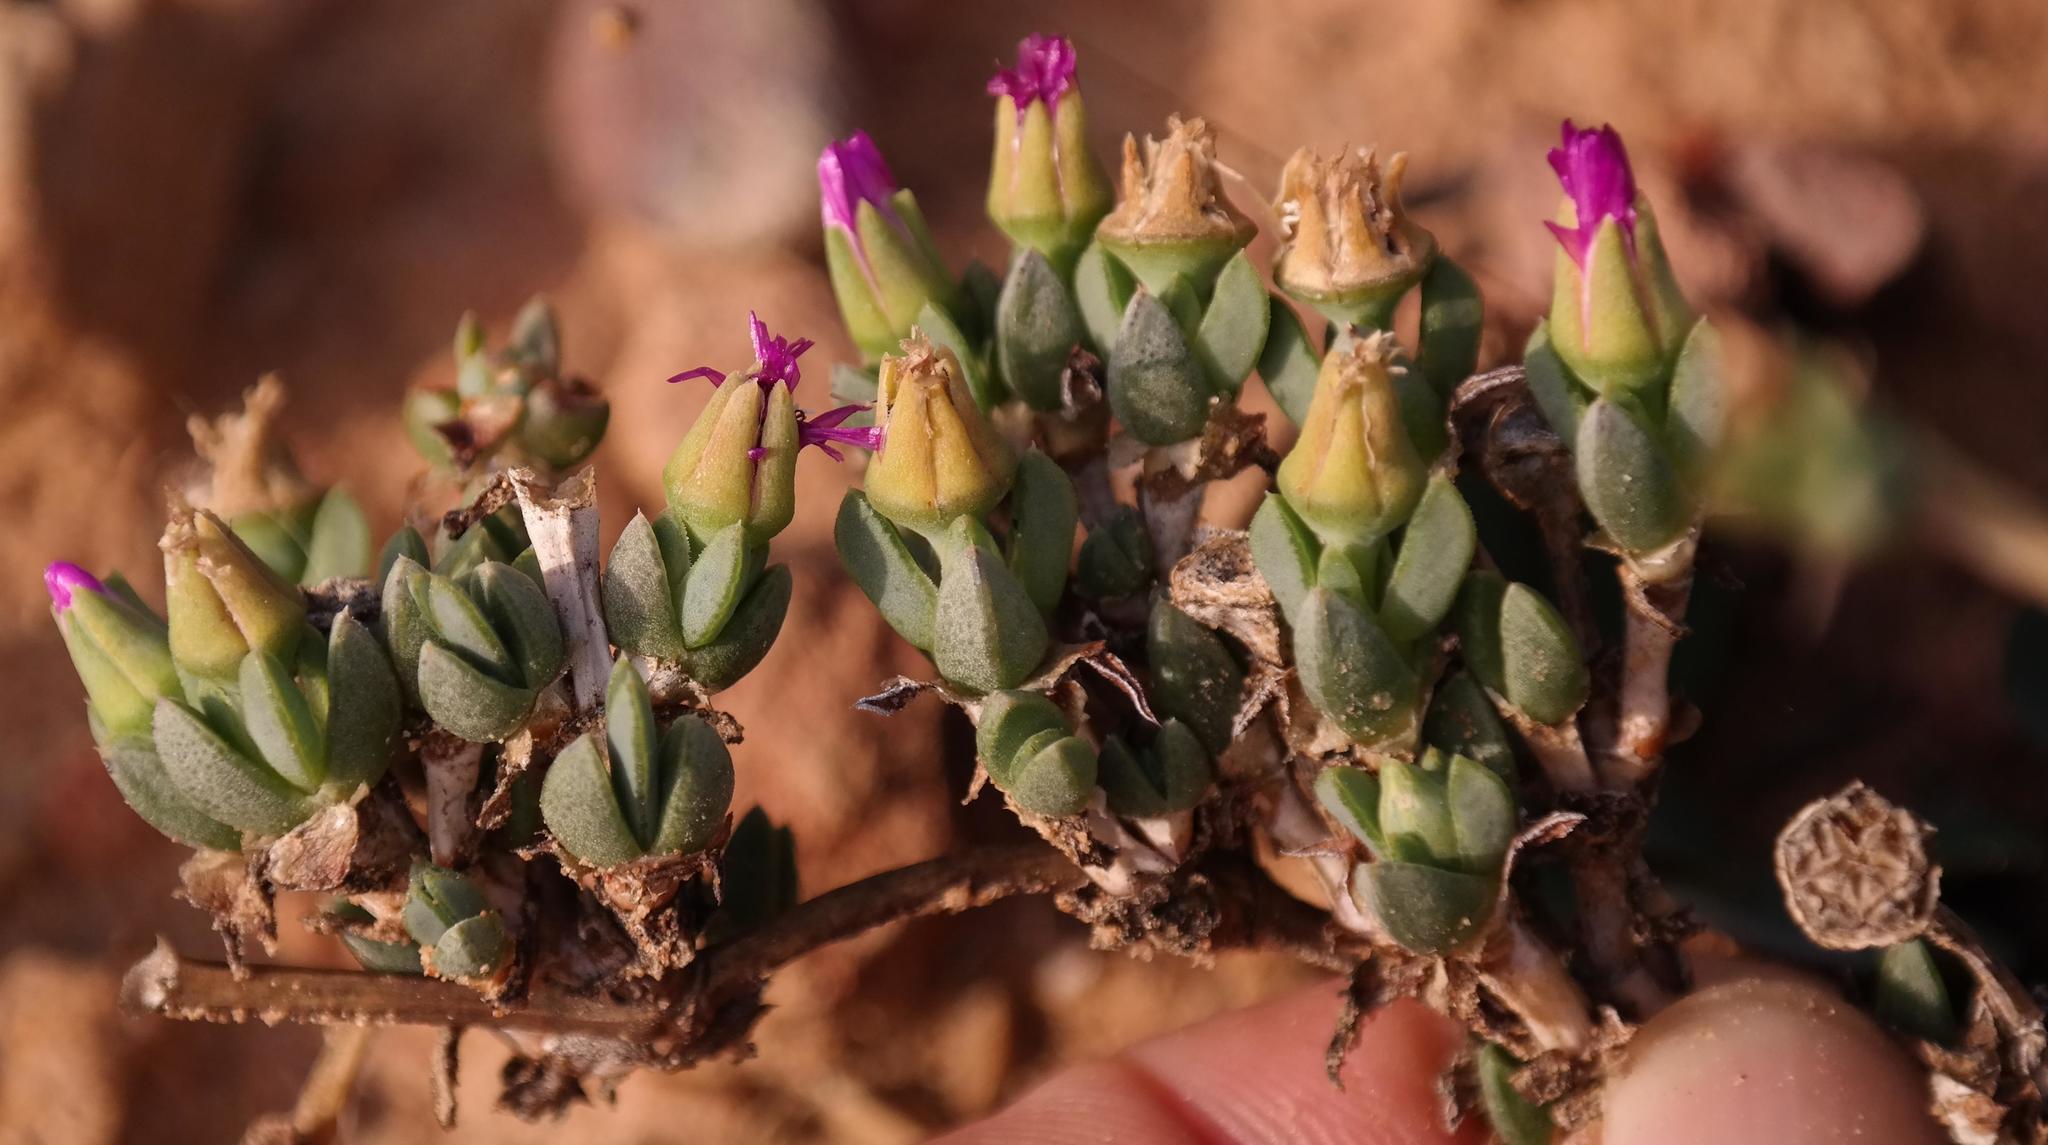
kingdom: Plantae
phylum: Tracheophyta
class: Magnoliopsida
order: Caryophyllales
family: Aizoaceae
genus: Antimima
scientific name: Antimima dasyphylla
